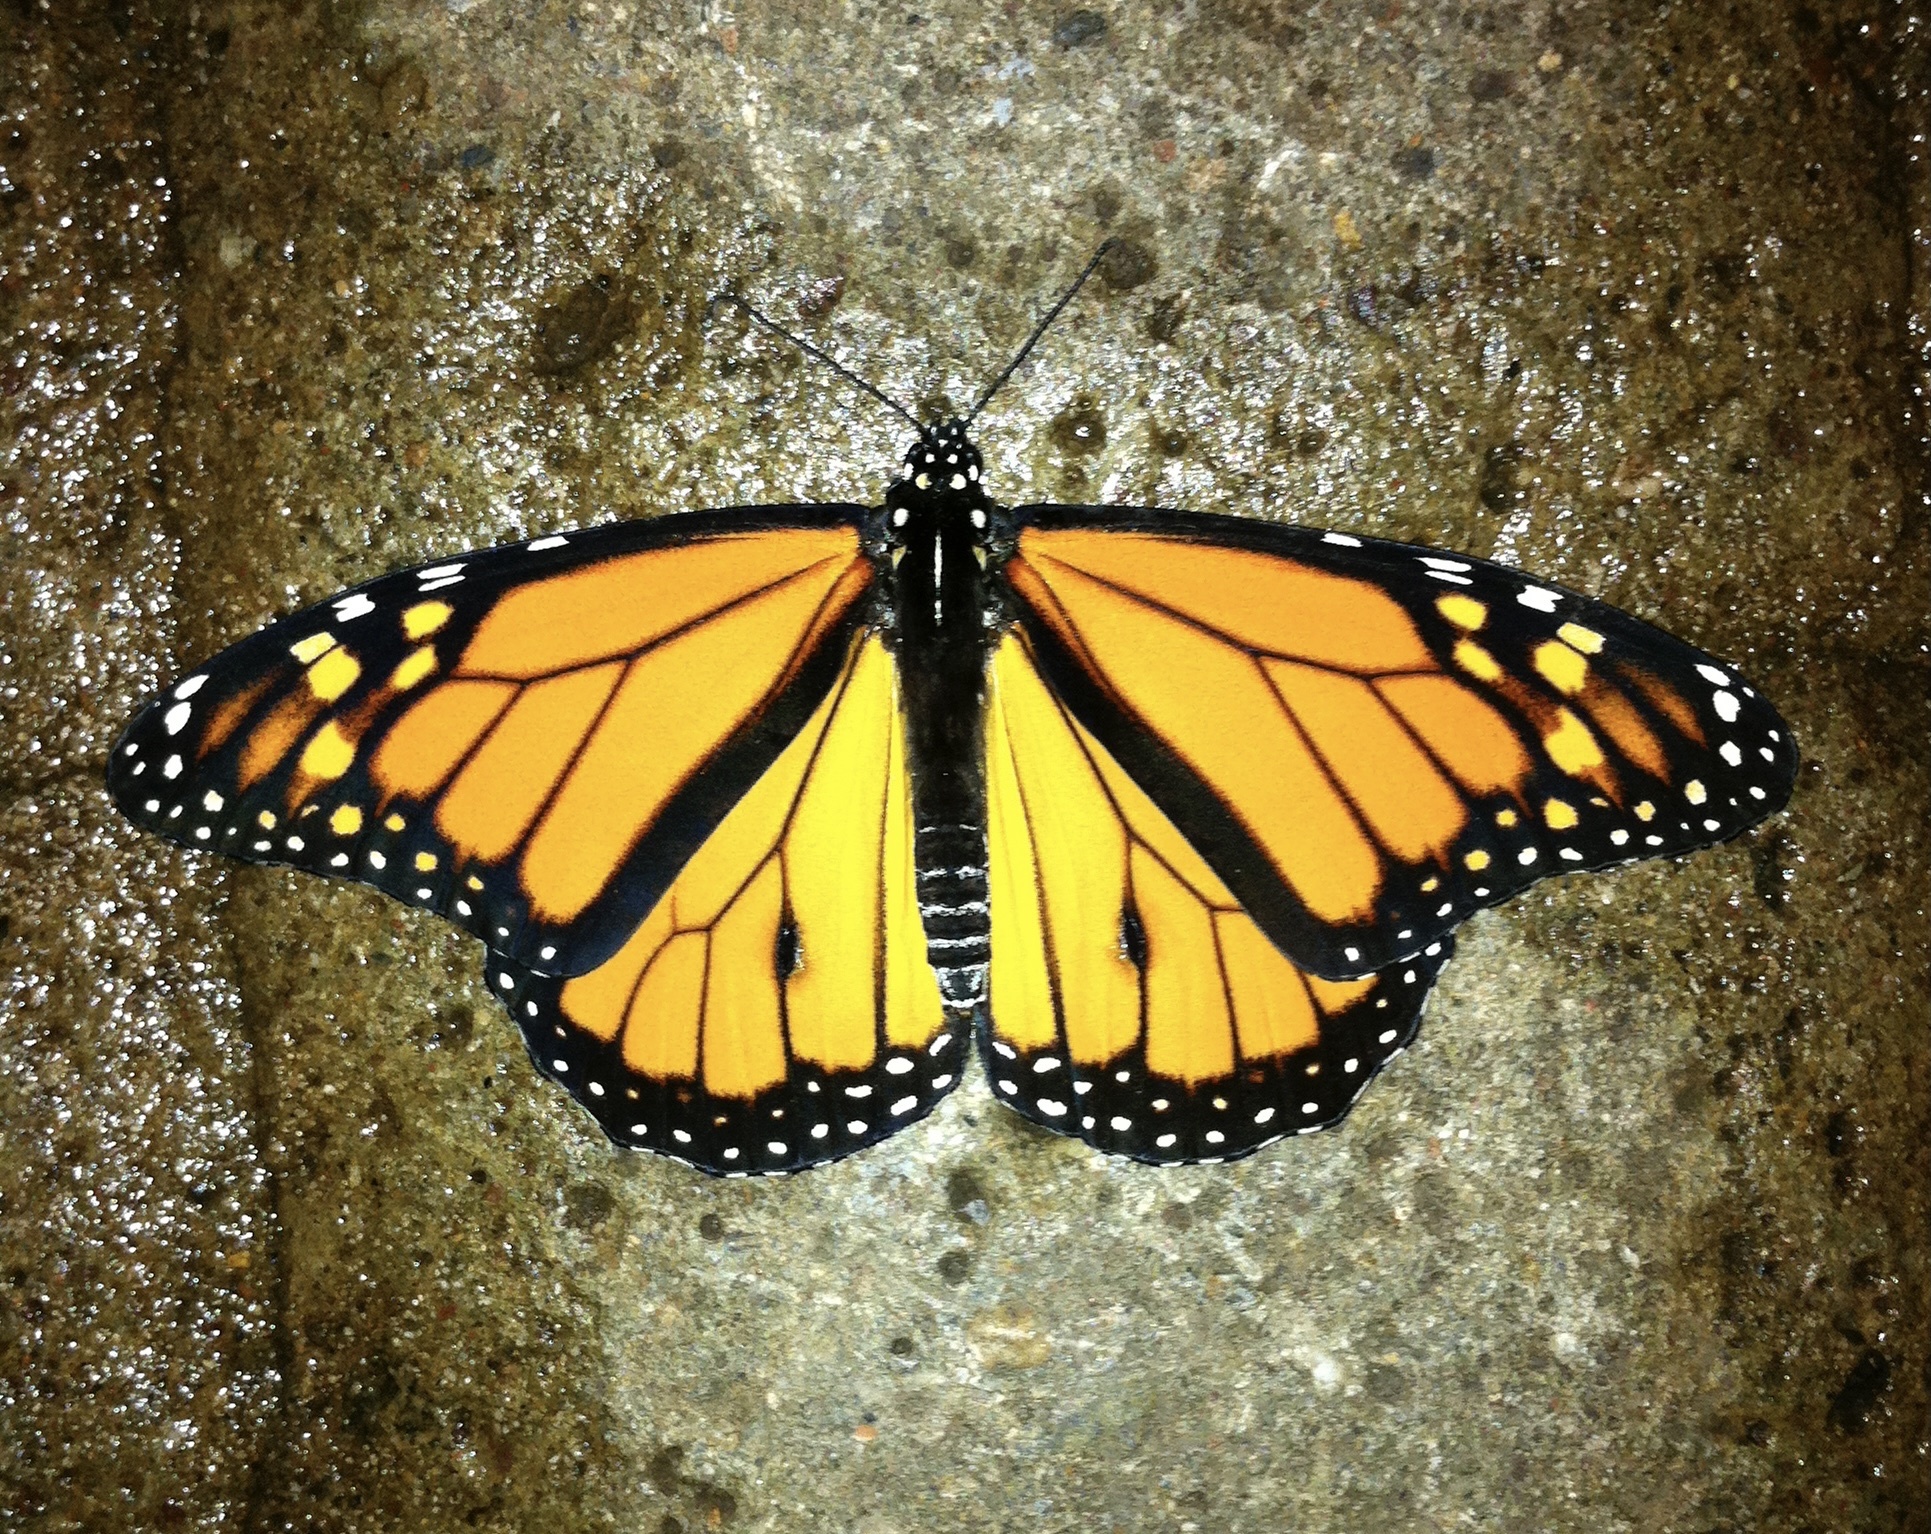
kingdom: Animalia
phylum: Arthropoda
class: Insecta
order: Lepidoptera
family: Nymphalidae
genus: Danaus
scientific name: Danaus plexippus
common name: Monarch
